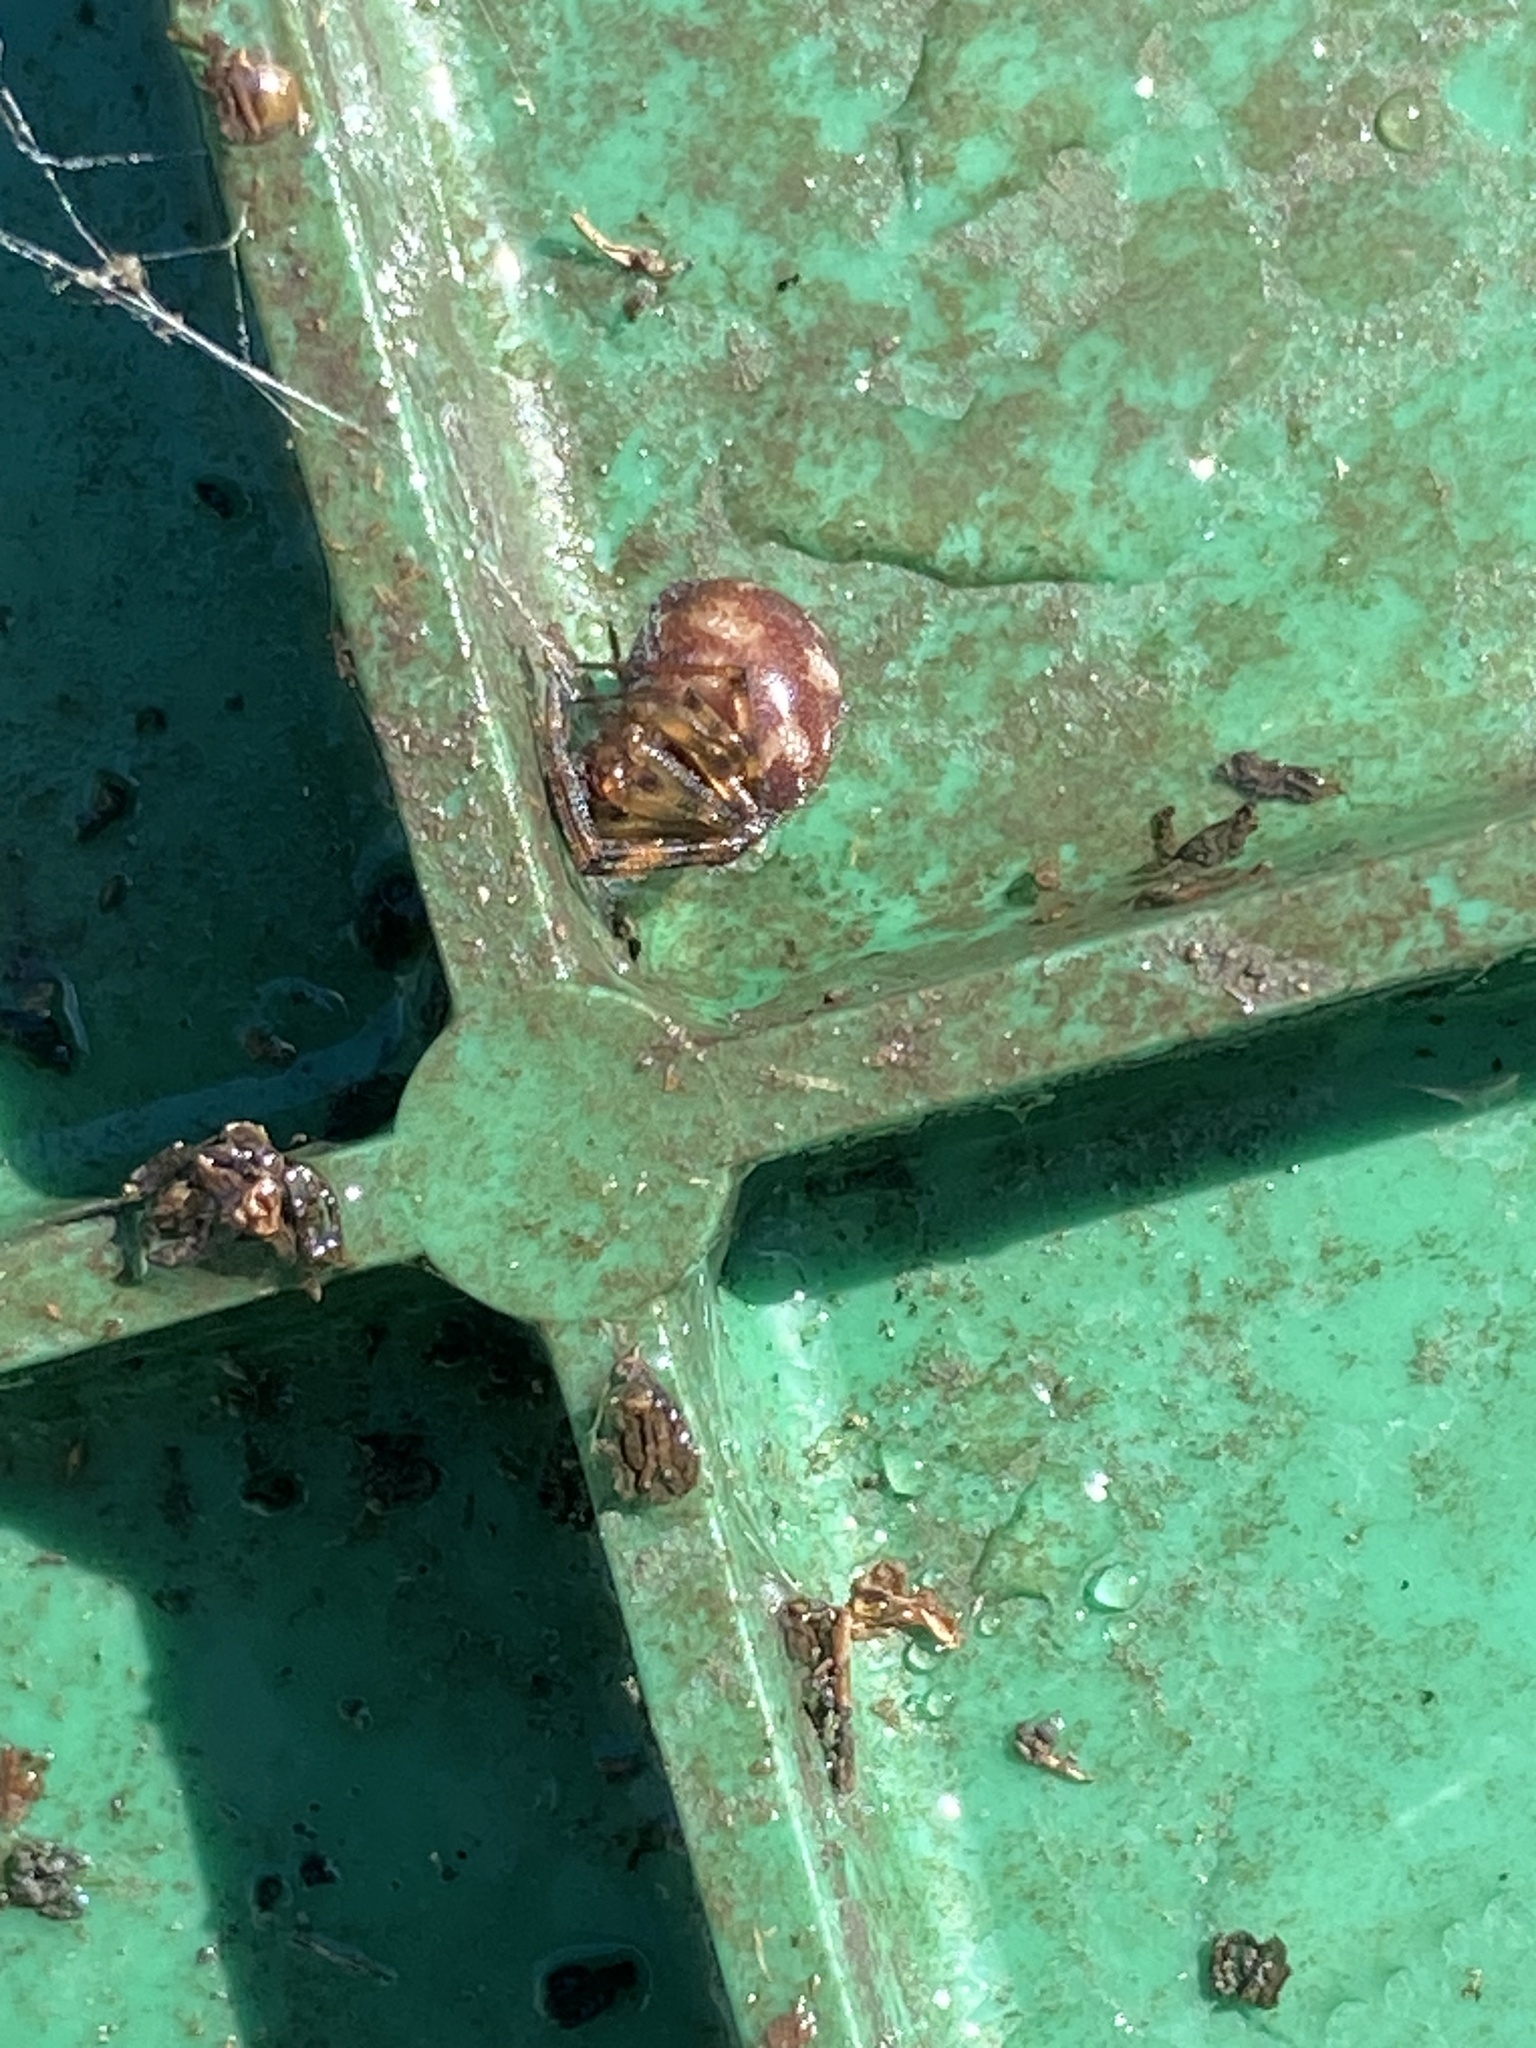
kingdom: Animalia
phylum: Arthropoda
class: Arachnida
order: Araneae
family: Theridiidae
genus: Steatoda
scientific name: Steatoda triangulosa
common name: Triangulate bud spider
